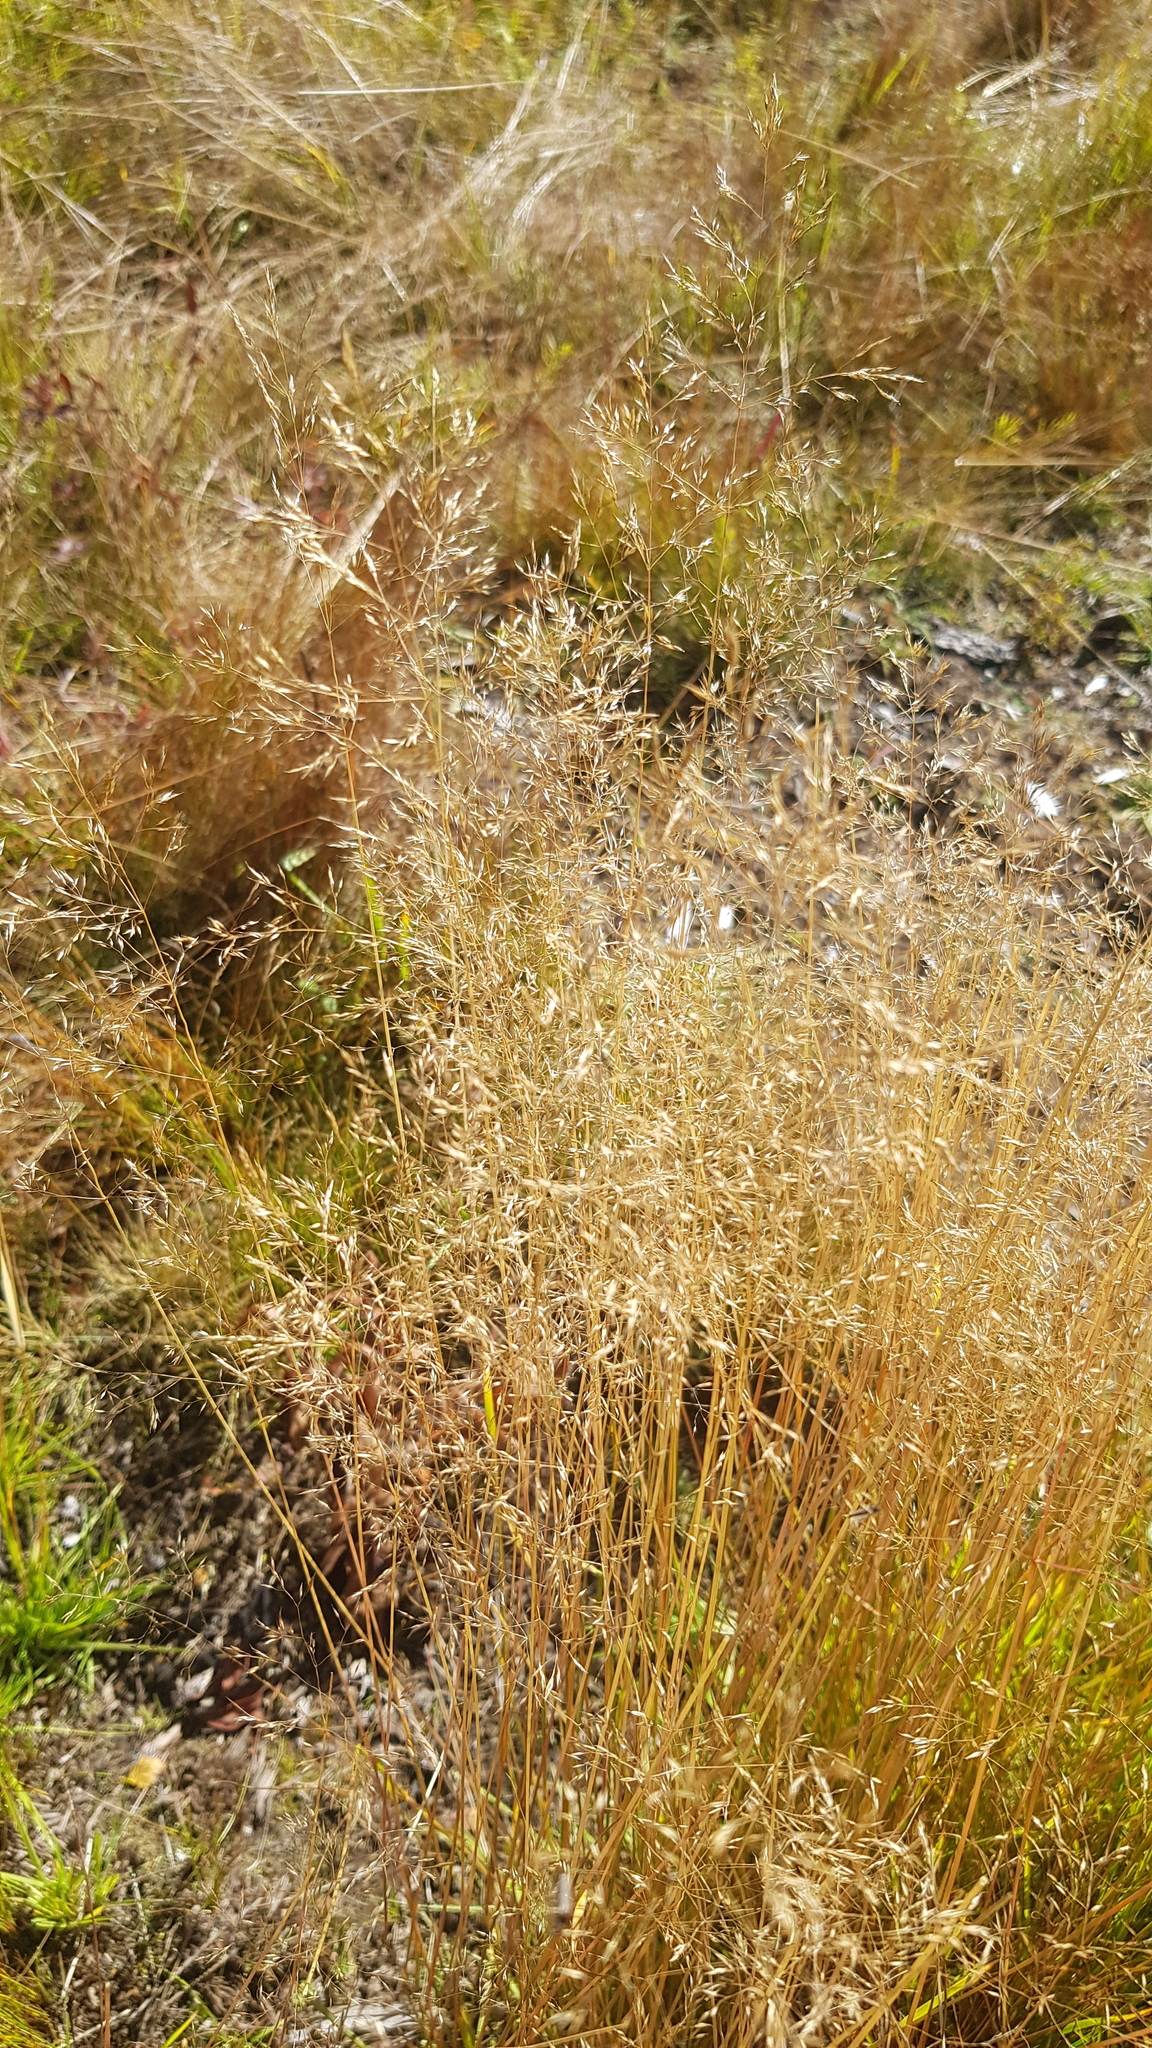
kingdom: Plantae
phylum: Tracheophyta
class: Liliopsida
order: Poales
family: Poaceae
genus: Agrostis
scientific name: Agrostis gigantea
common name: Black bent
